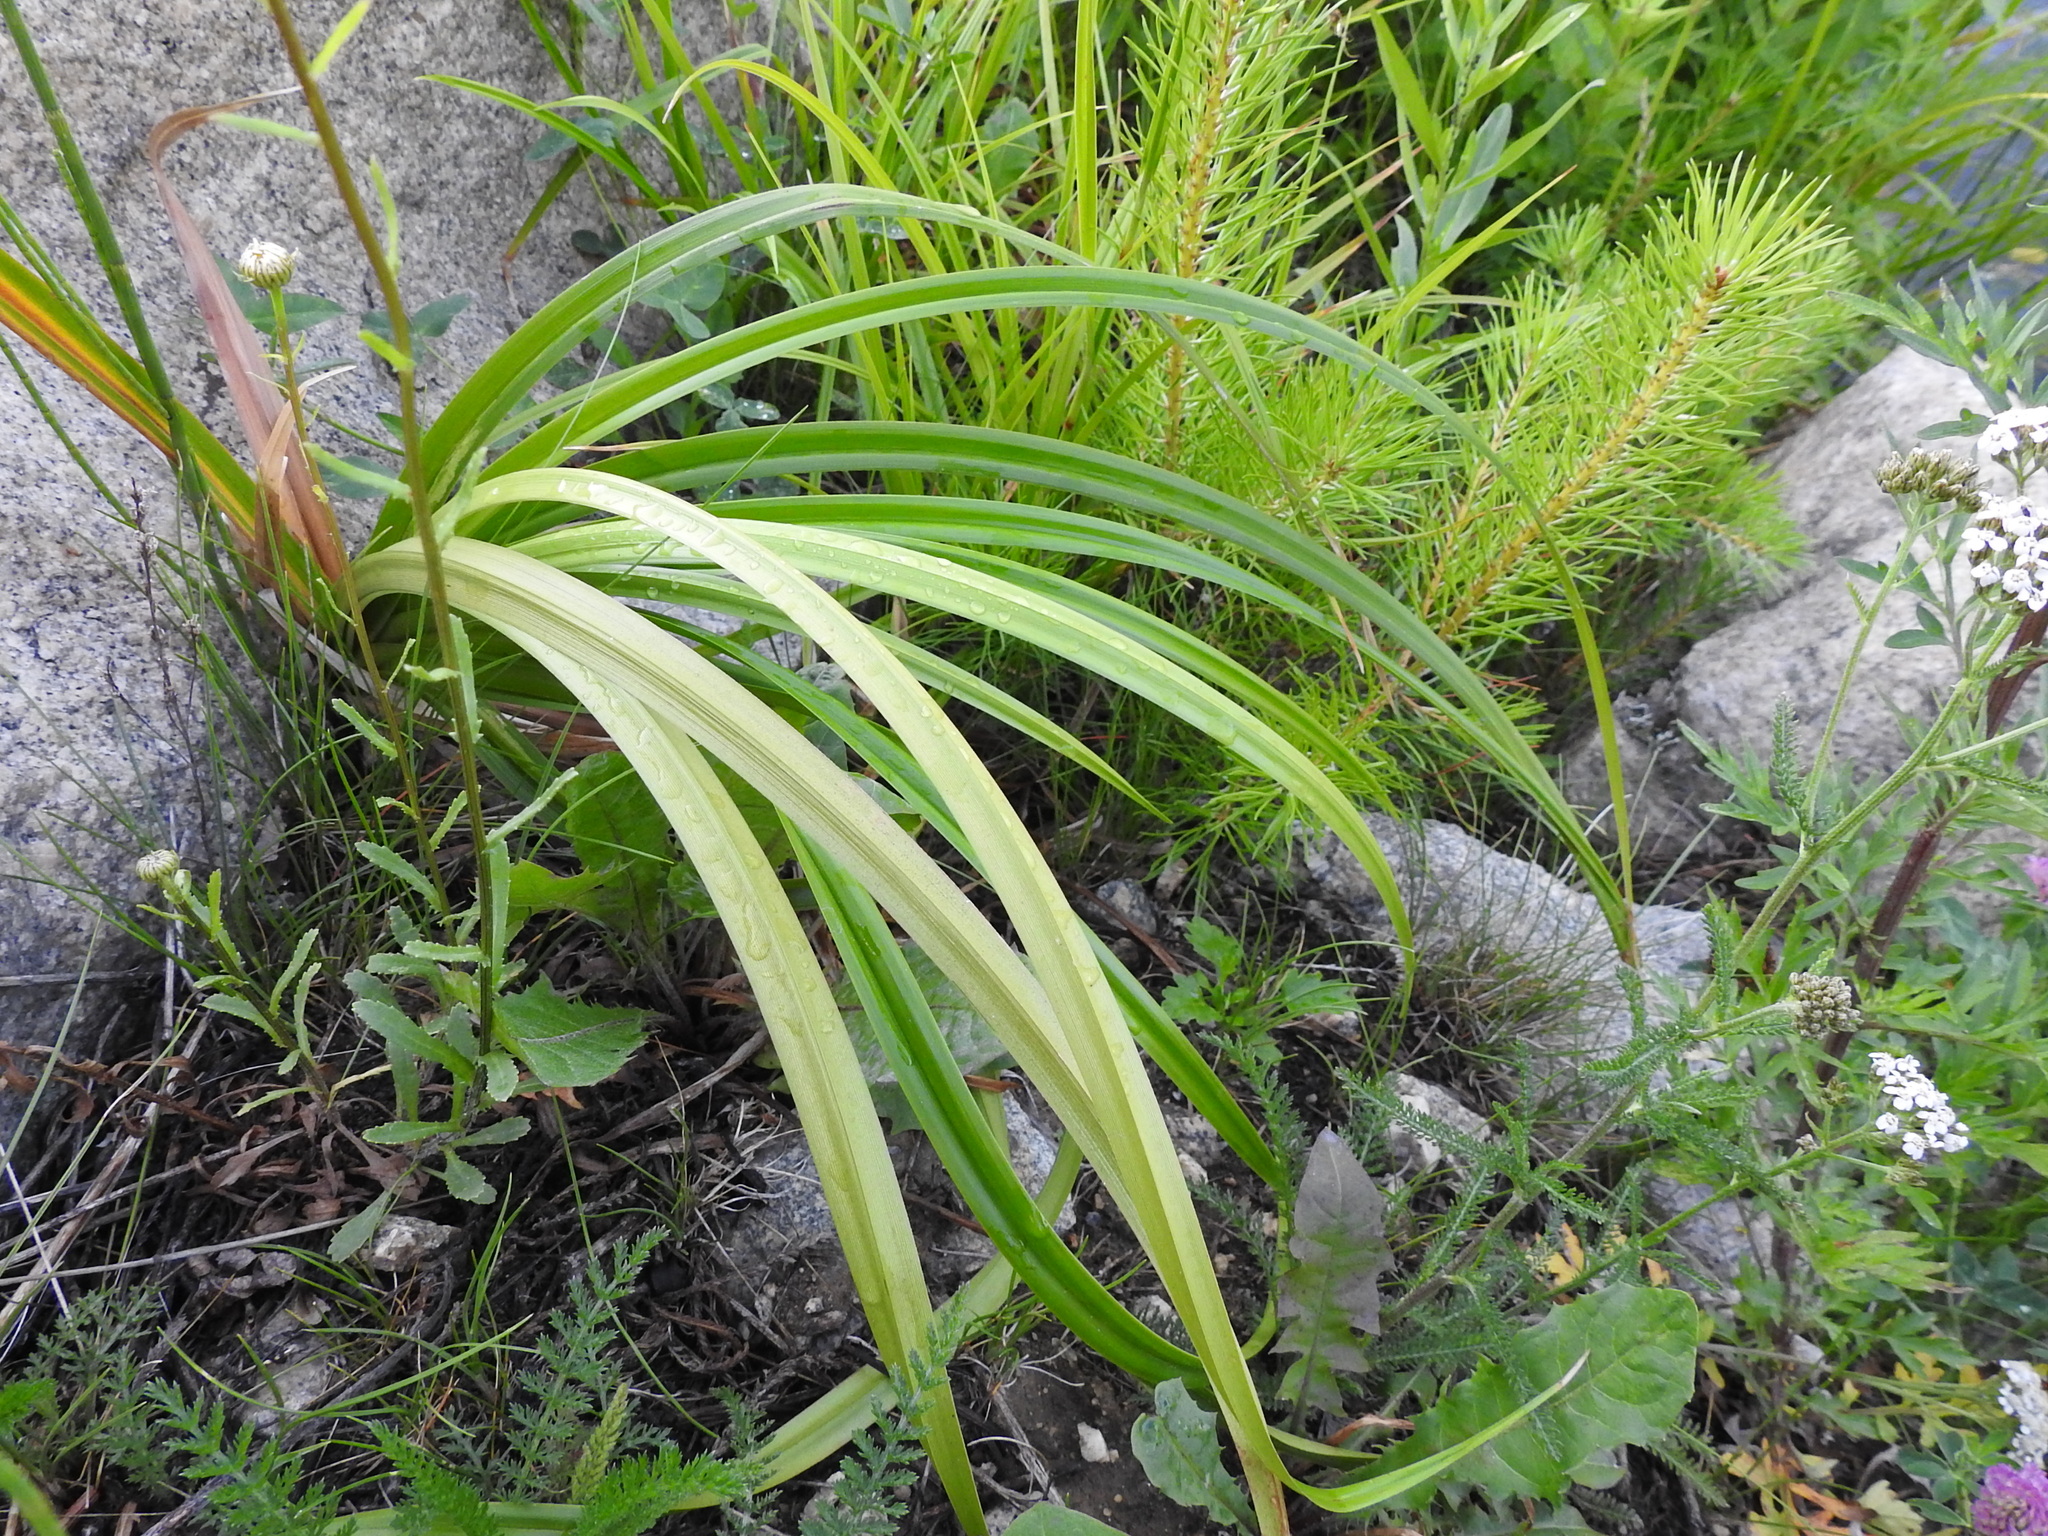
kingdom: Plantae
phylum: Tracheophyta
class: Liliopsida
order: Poales
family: Cyperaceae
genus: Scirpus
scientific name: Scirpus sylvaticus
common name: Wood club-rush
